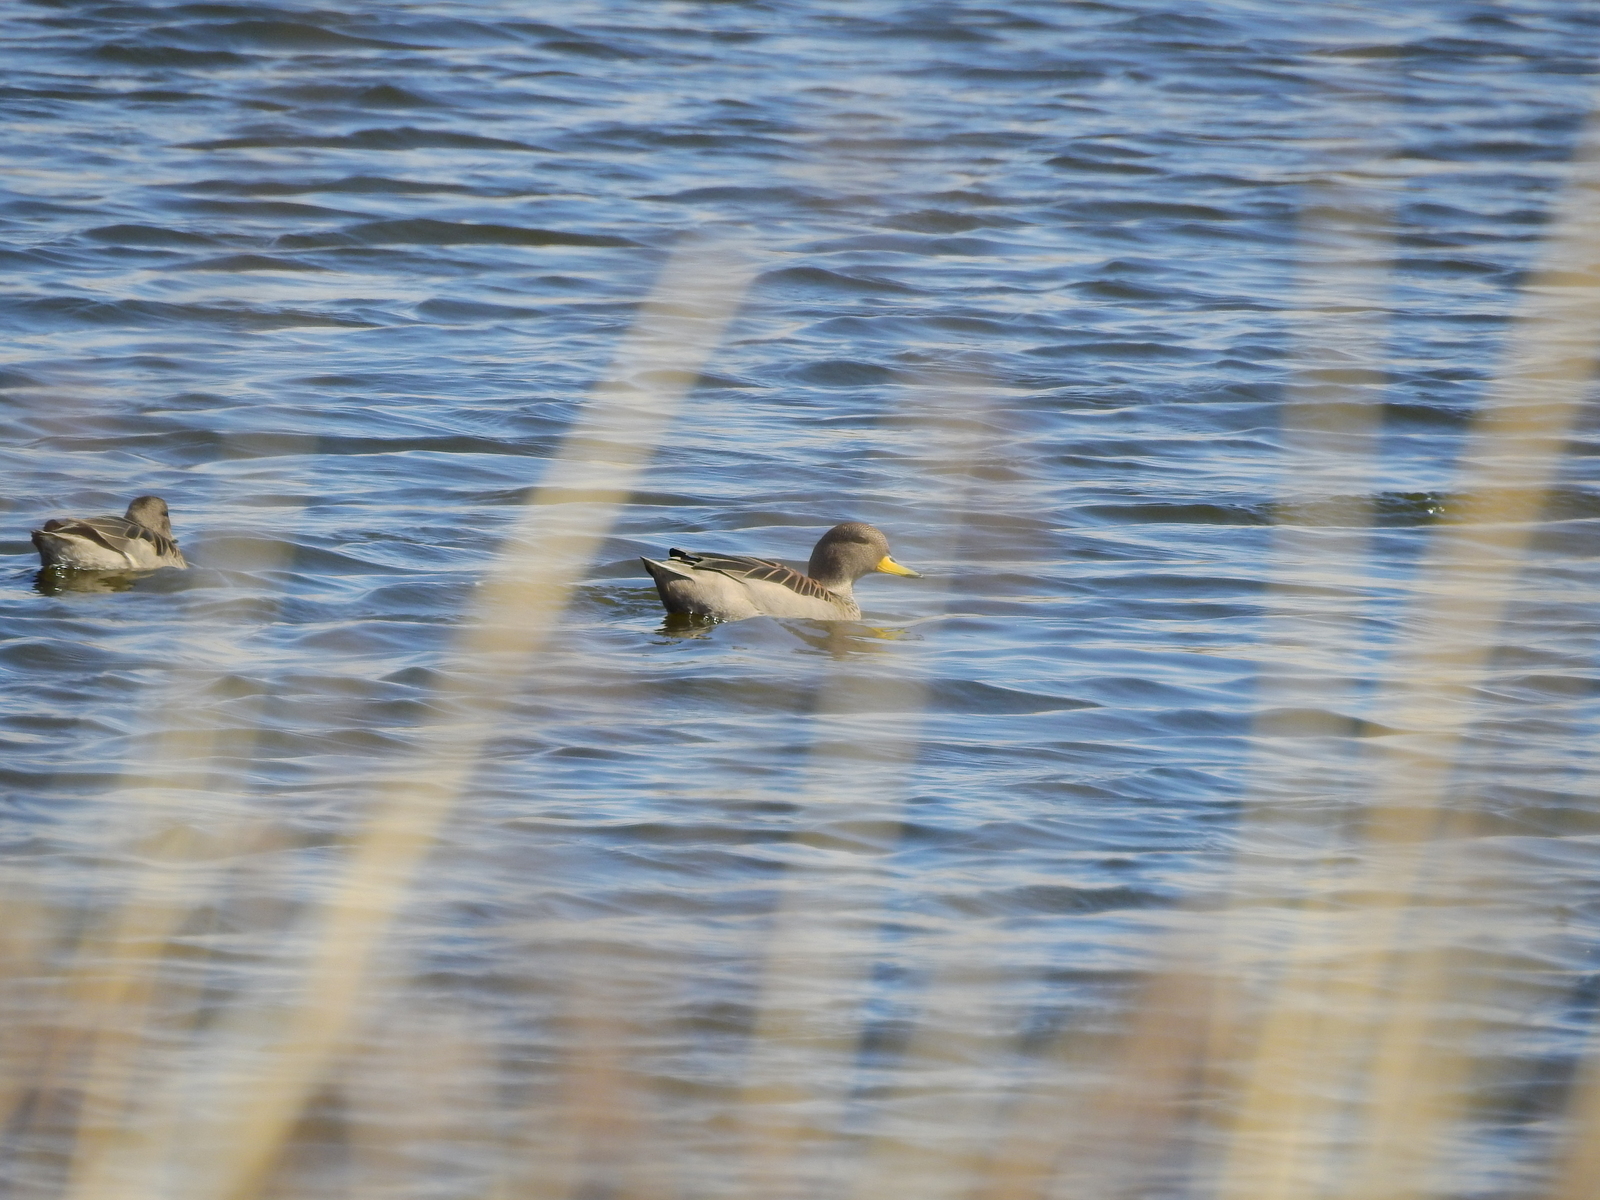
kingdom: Animalia
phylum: Chordata
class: Aves
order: Anseriformes
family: Anatidae
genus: Anas
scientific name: Anas flavirostris
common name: Yellow-billed teal
